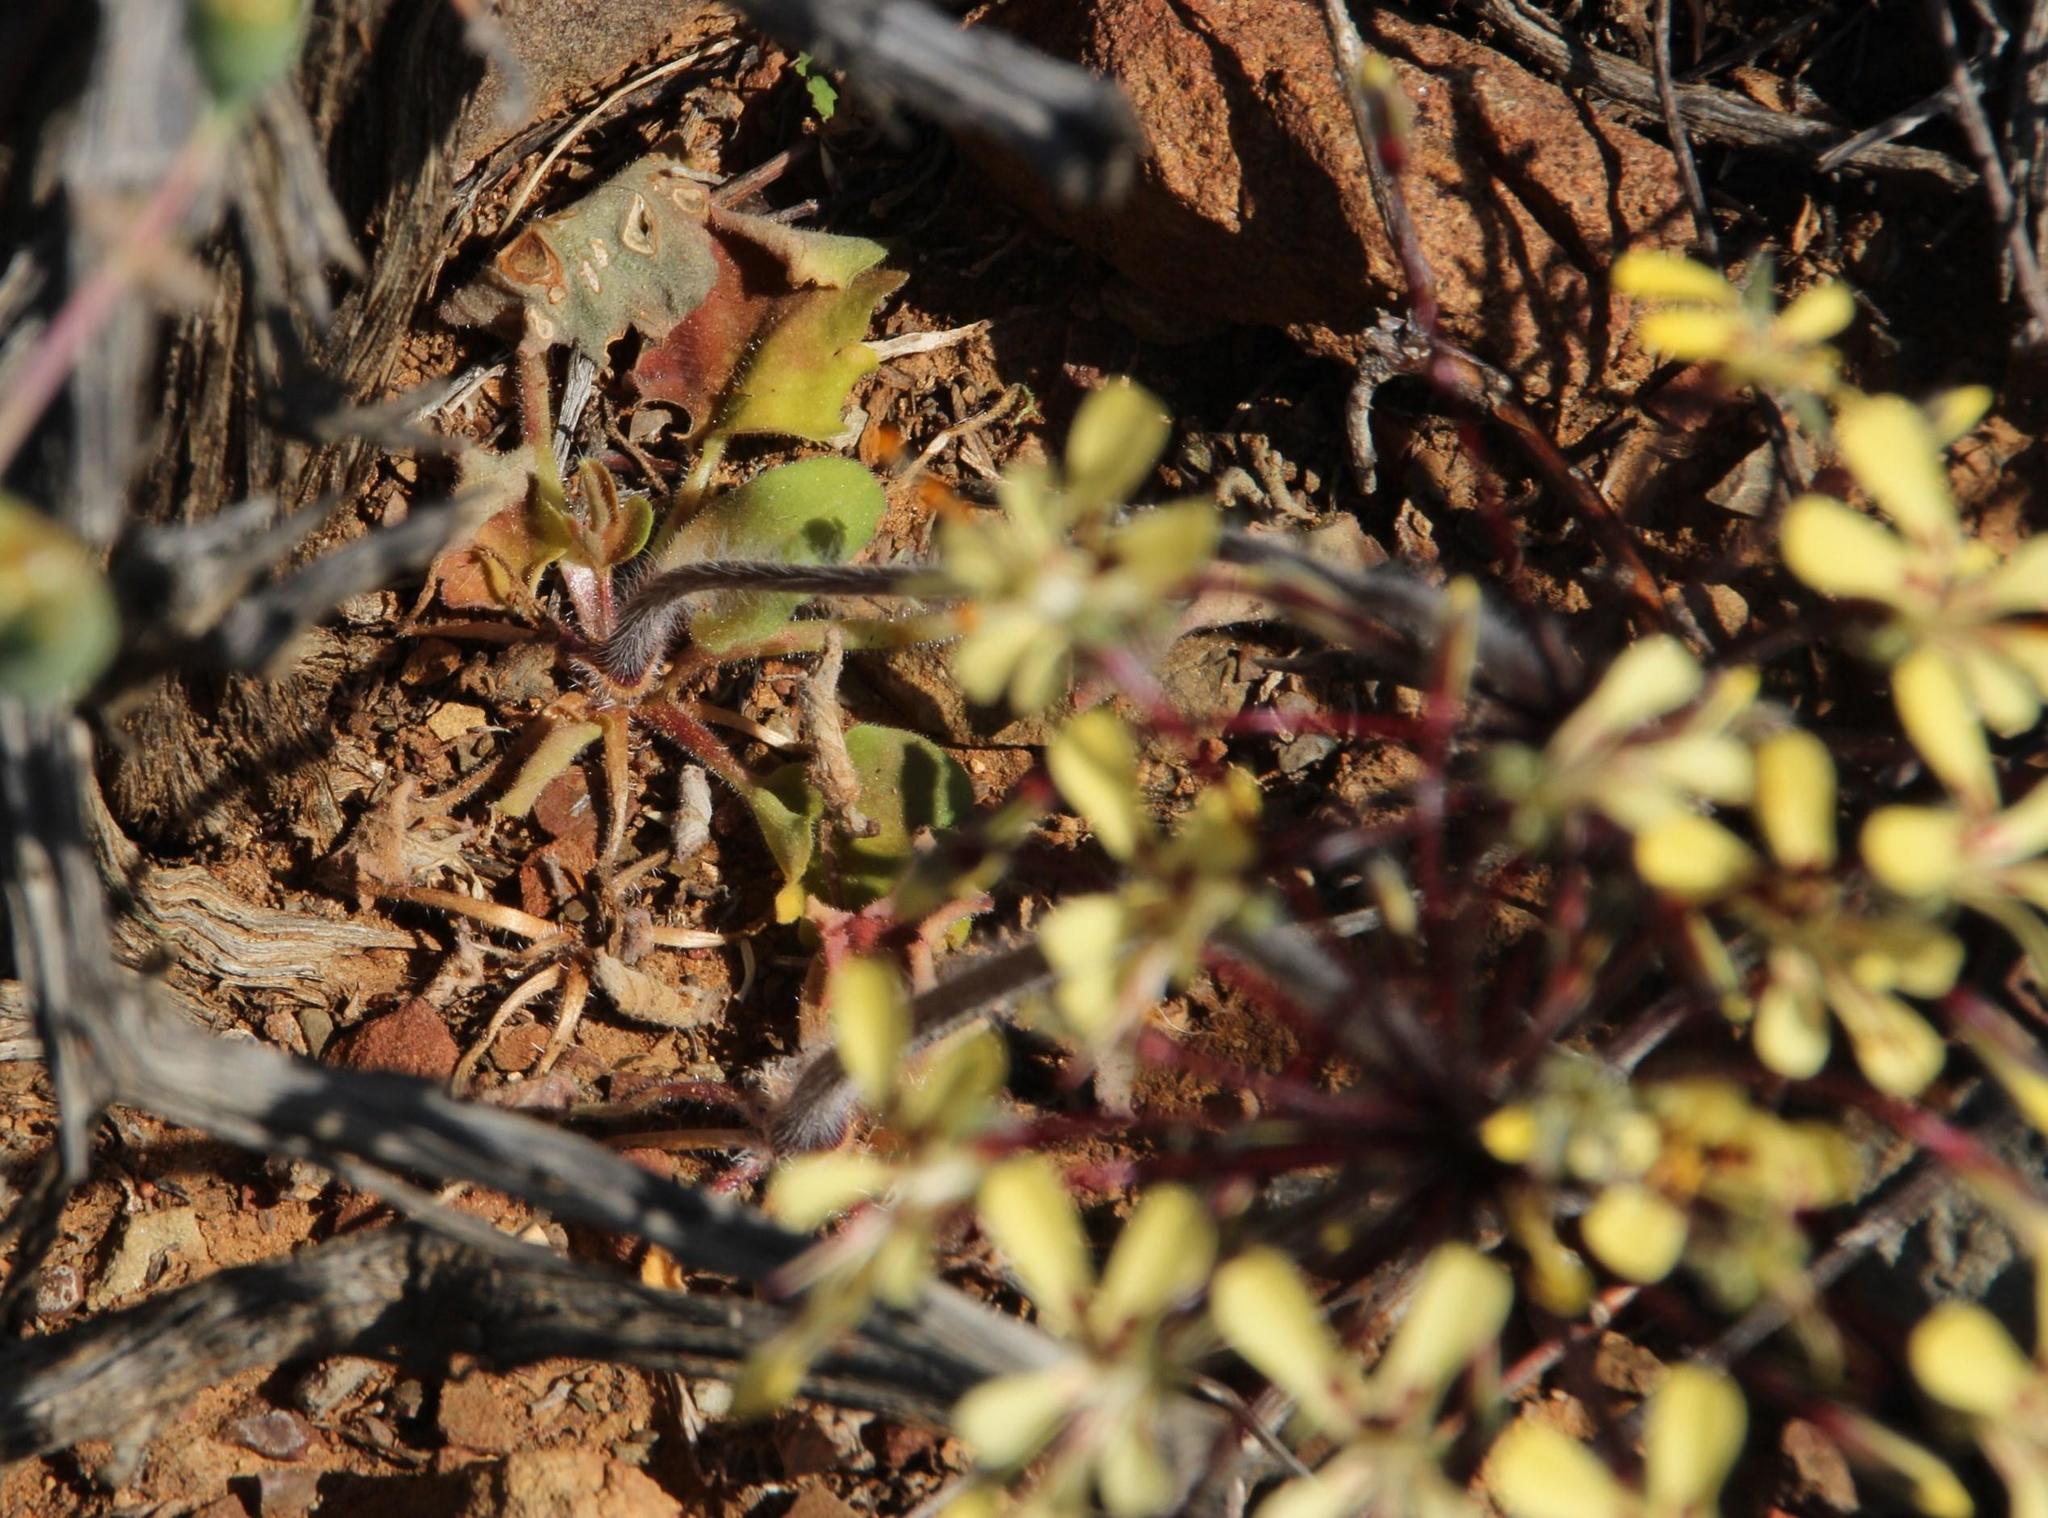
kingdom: Plantae
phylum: Tracheophyta
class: Magnoliopsida
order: Geraniales
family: Geraniaceae
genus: Pelargonium
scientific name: Pelargonium moniliforme
